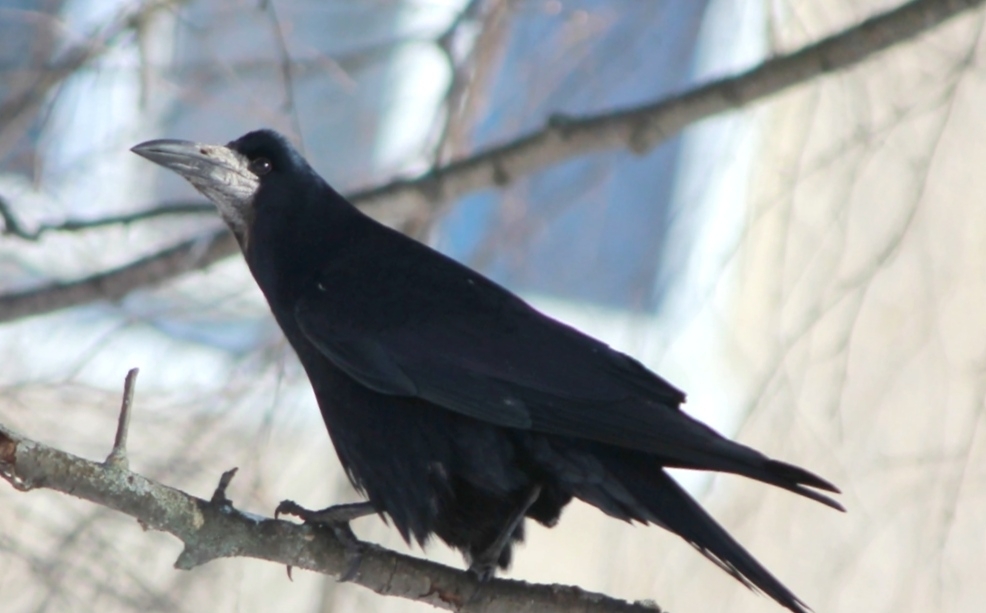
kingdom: Animalia
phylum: Chordata
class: Aves
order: Passeriformes
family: Corvidae
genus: Corvus
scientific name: Corvus frugilegus
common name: Rook
